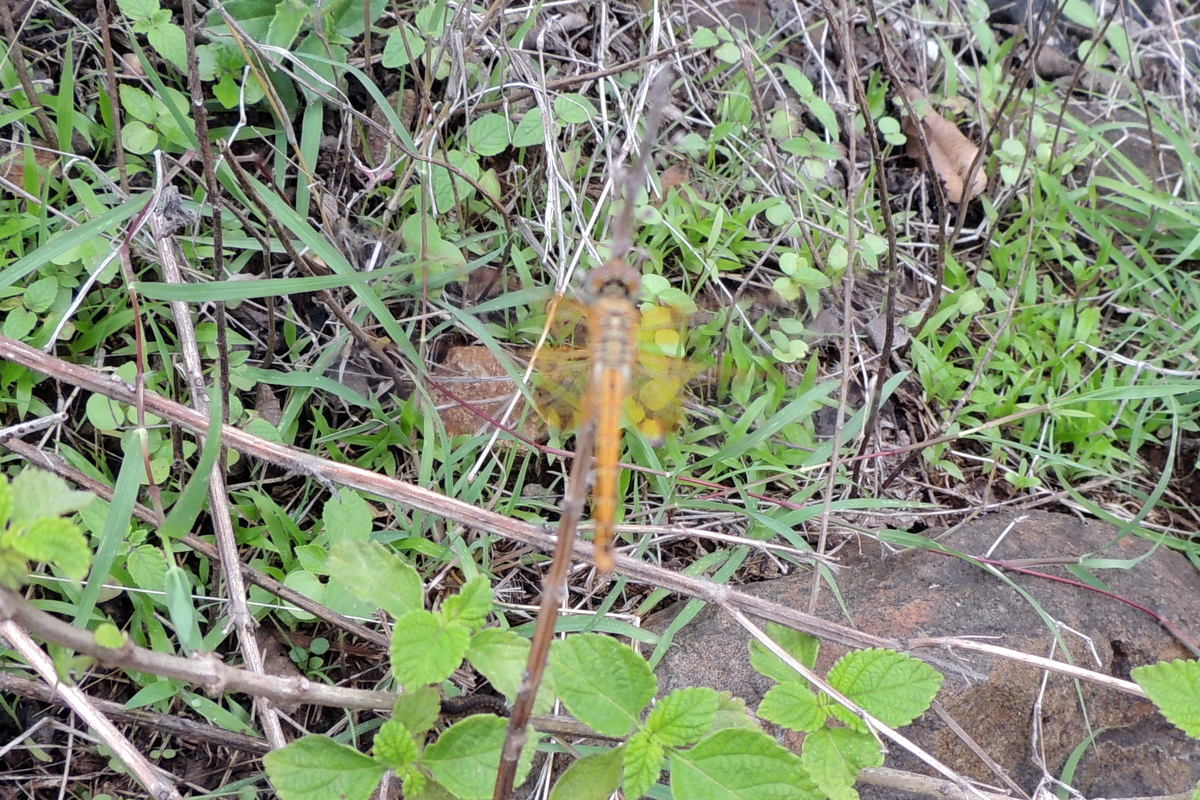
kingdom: Animalia
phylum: Arthropoda
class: Insecta
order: Odonata
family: Libellulidae
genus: Brachythemis
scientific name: Brachythemis contaminata
